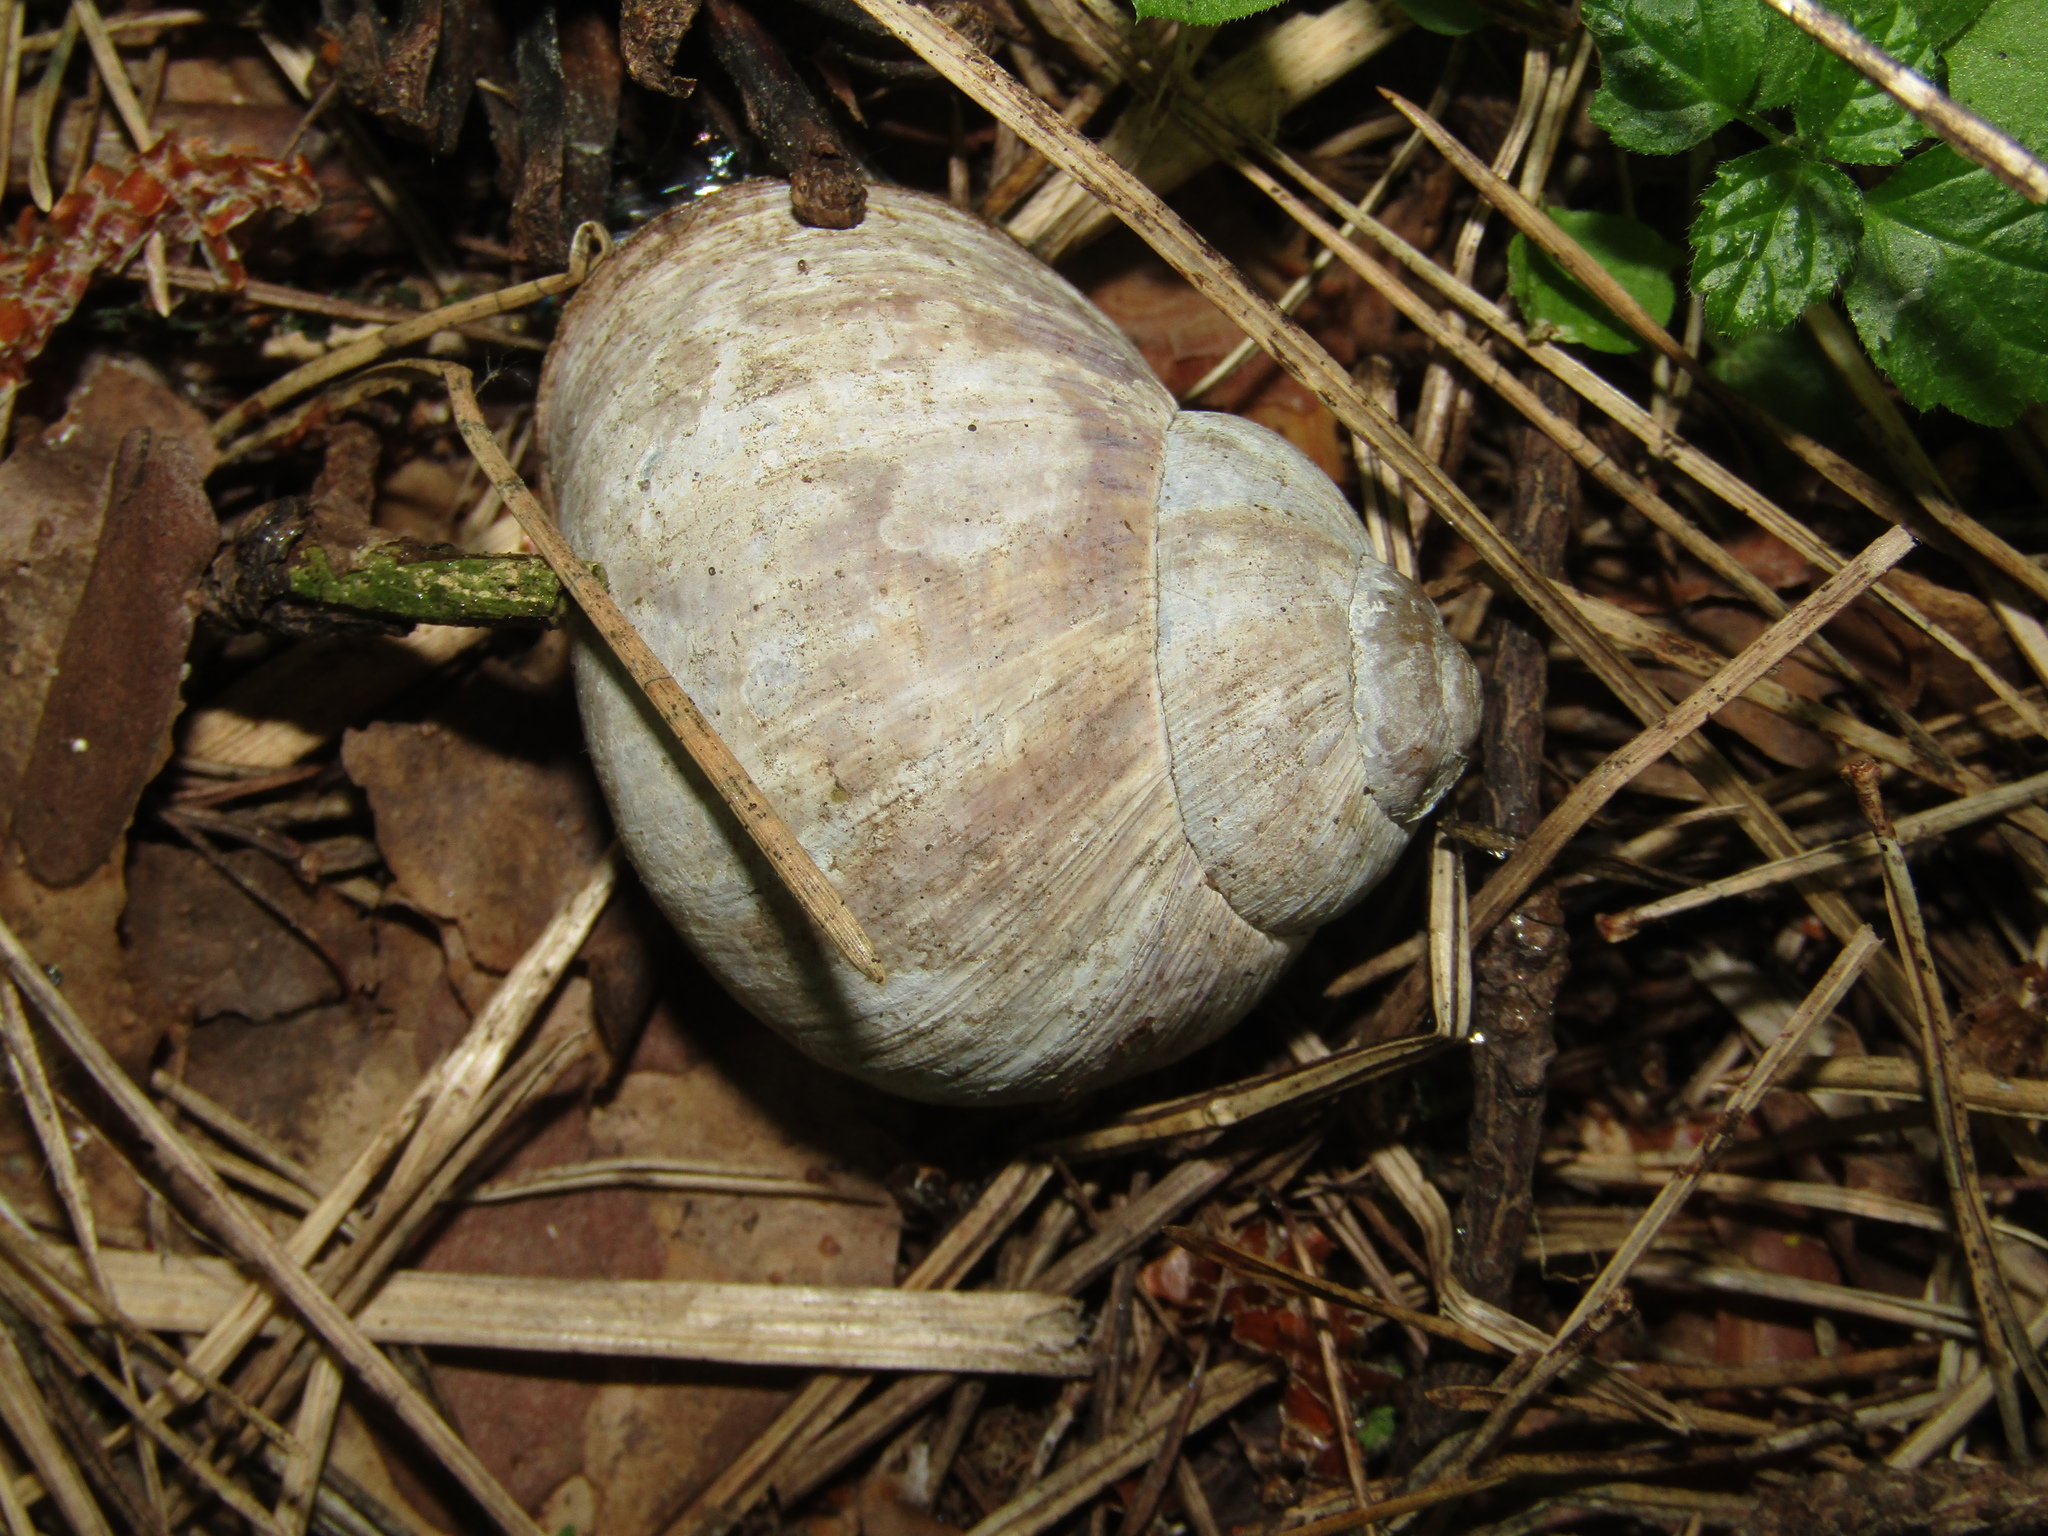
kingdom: Animalia
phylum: Mollusca
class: Gastropoda
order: Stylommatophora
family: Helicidae
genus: Helix
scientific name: Helix pomatia
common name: Roman snail
